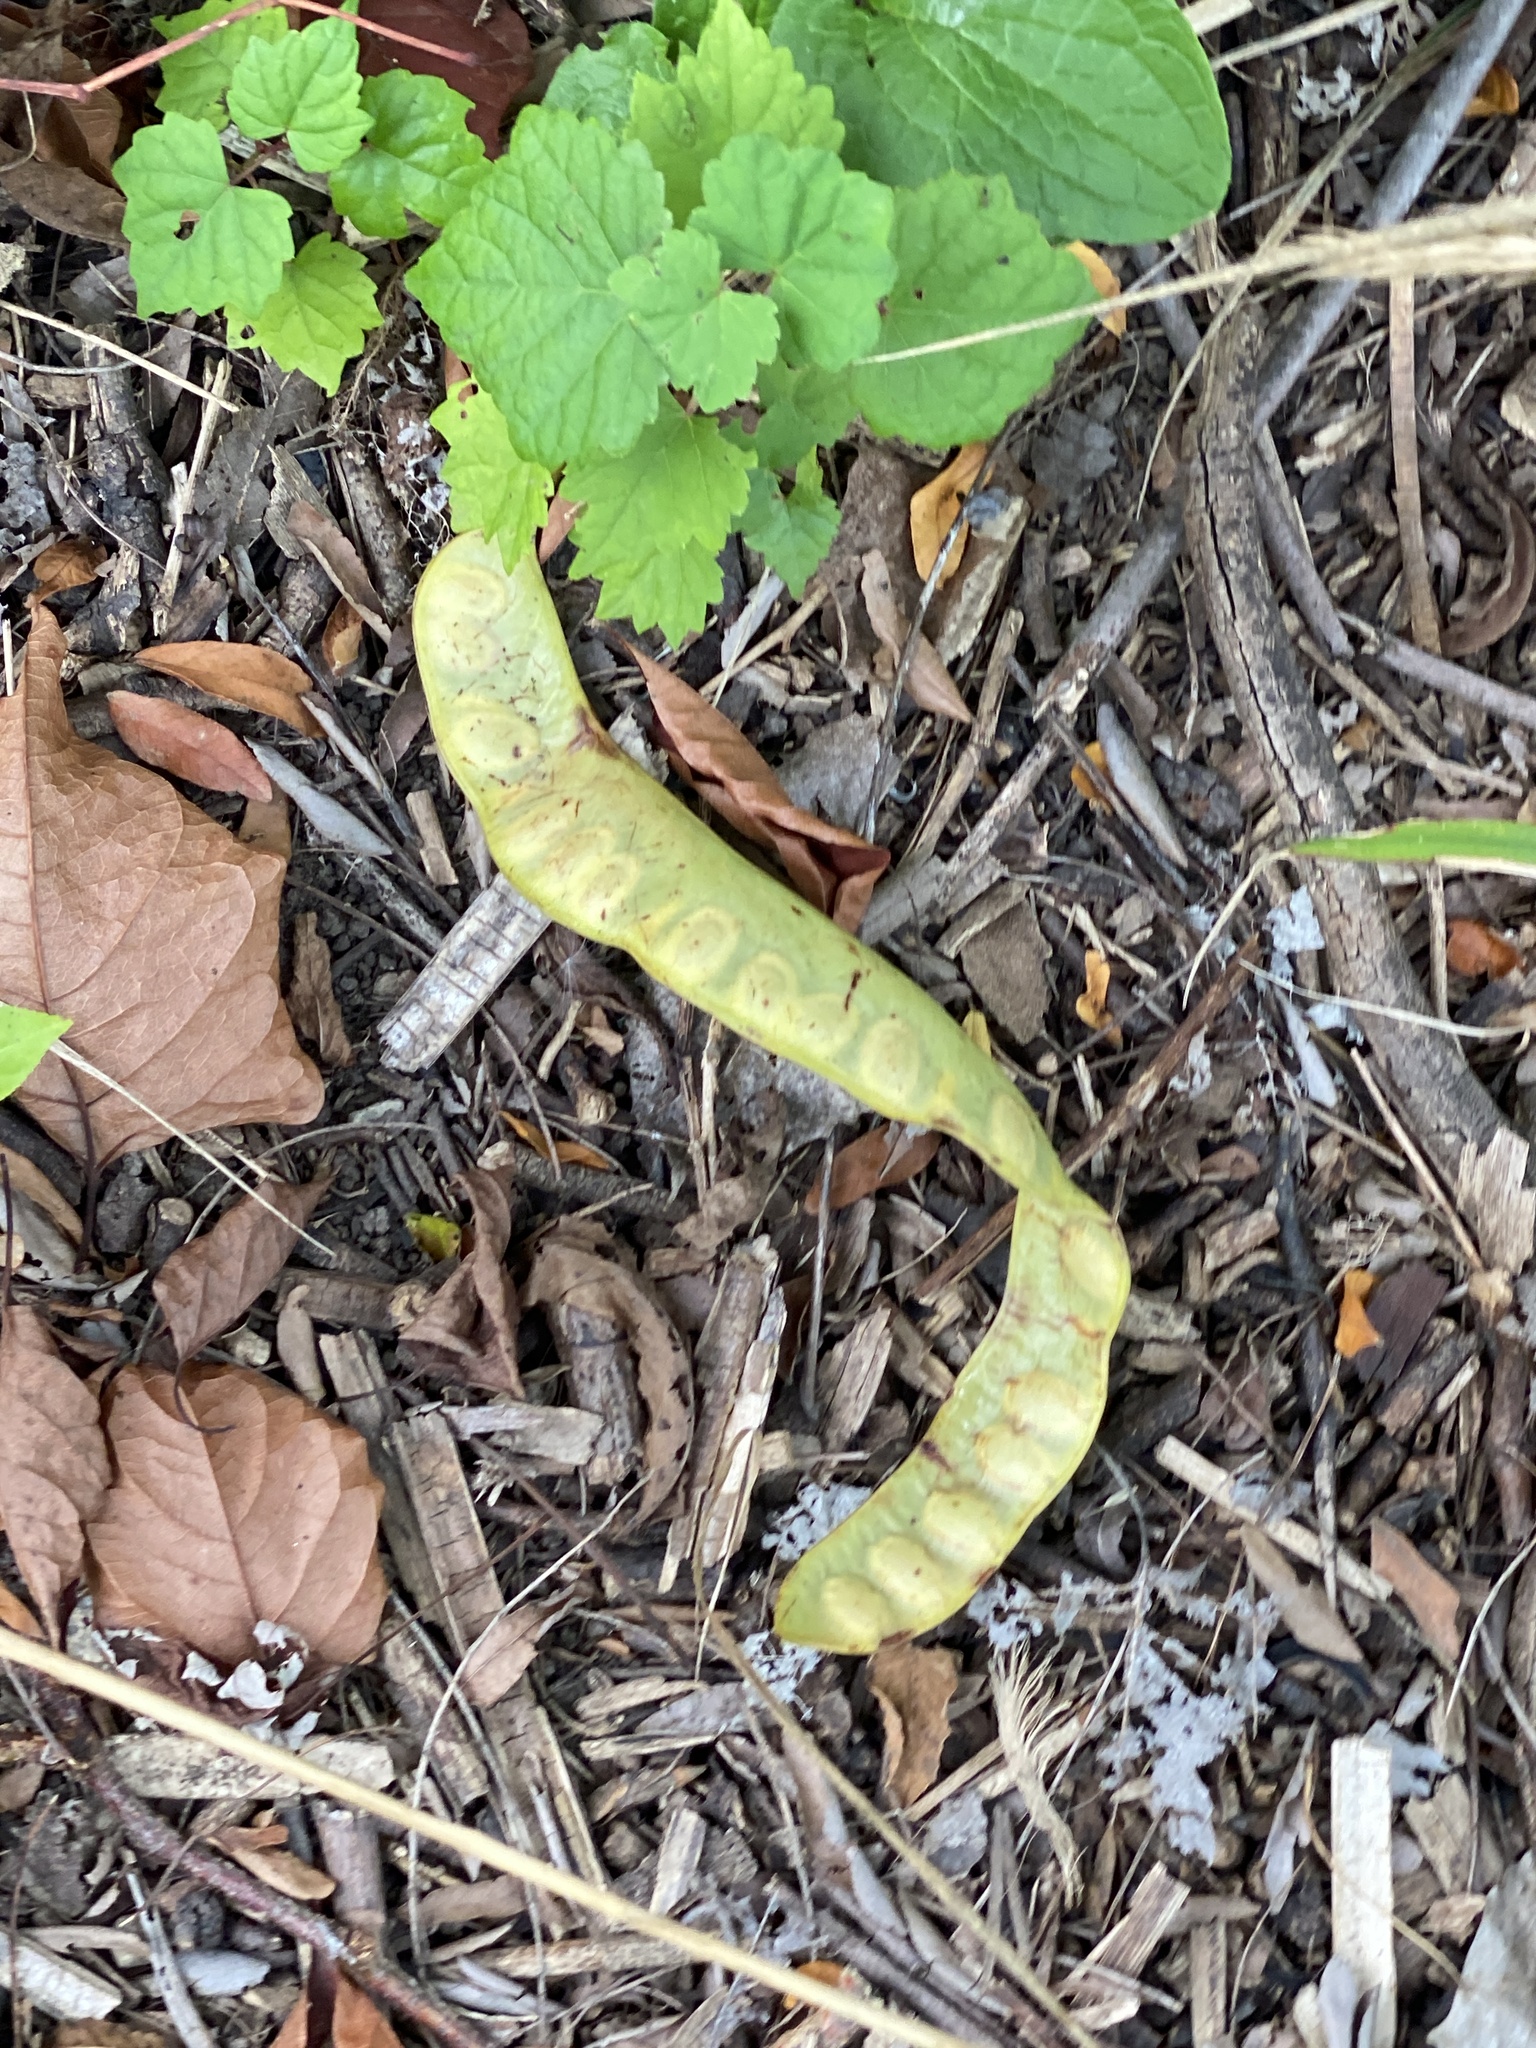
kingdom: Plantae
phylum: Tracheophyta
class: Magnoliopsida
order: Fabales
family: Fabaceae
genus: Gleditsia
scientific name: Gleditsia triacanthos
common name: Common honeylocust
